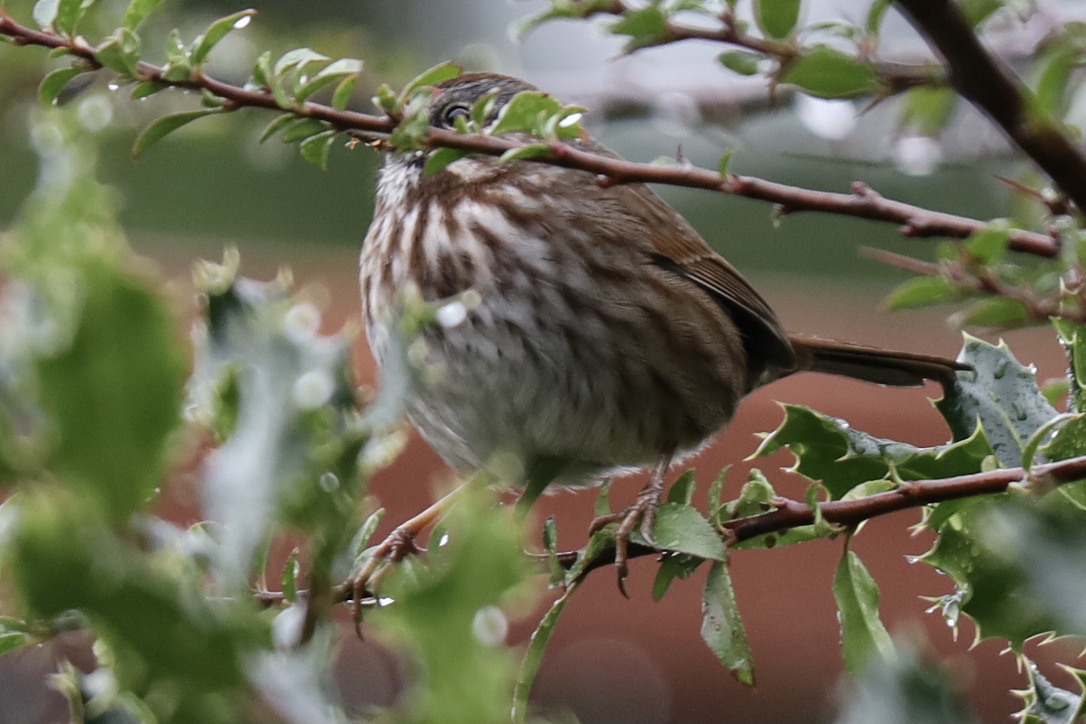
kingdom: Animalia
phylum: Chordata
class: Aves
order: Passeriformes
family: Passerellidae
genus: Melospiza
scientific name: Melospiza melodia
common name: Song sparrow
